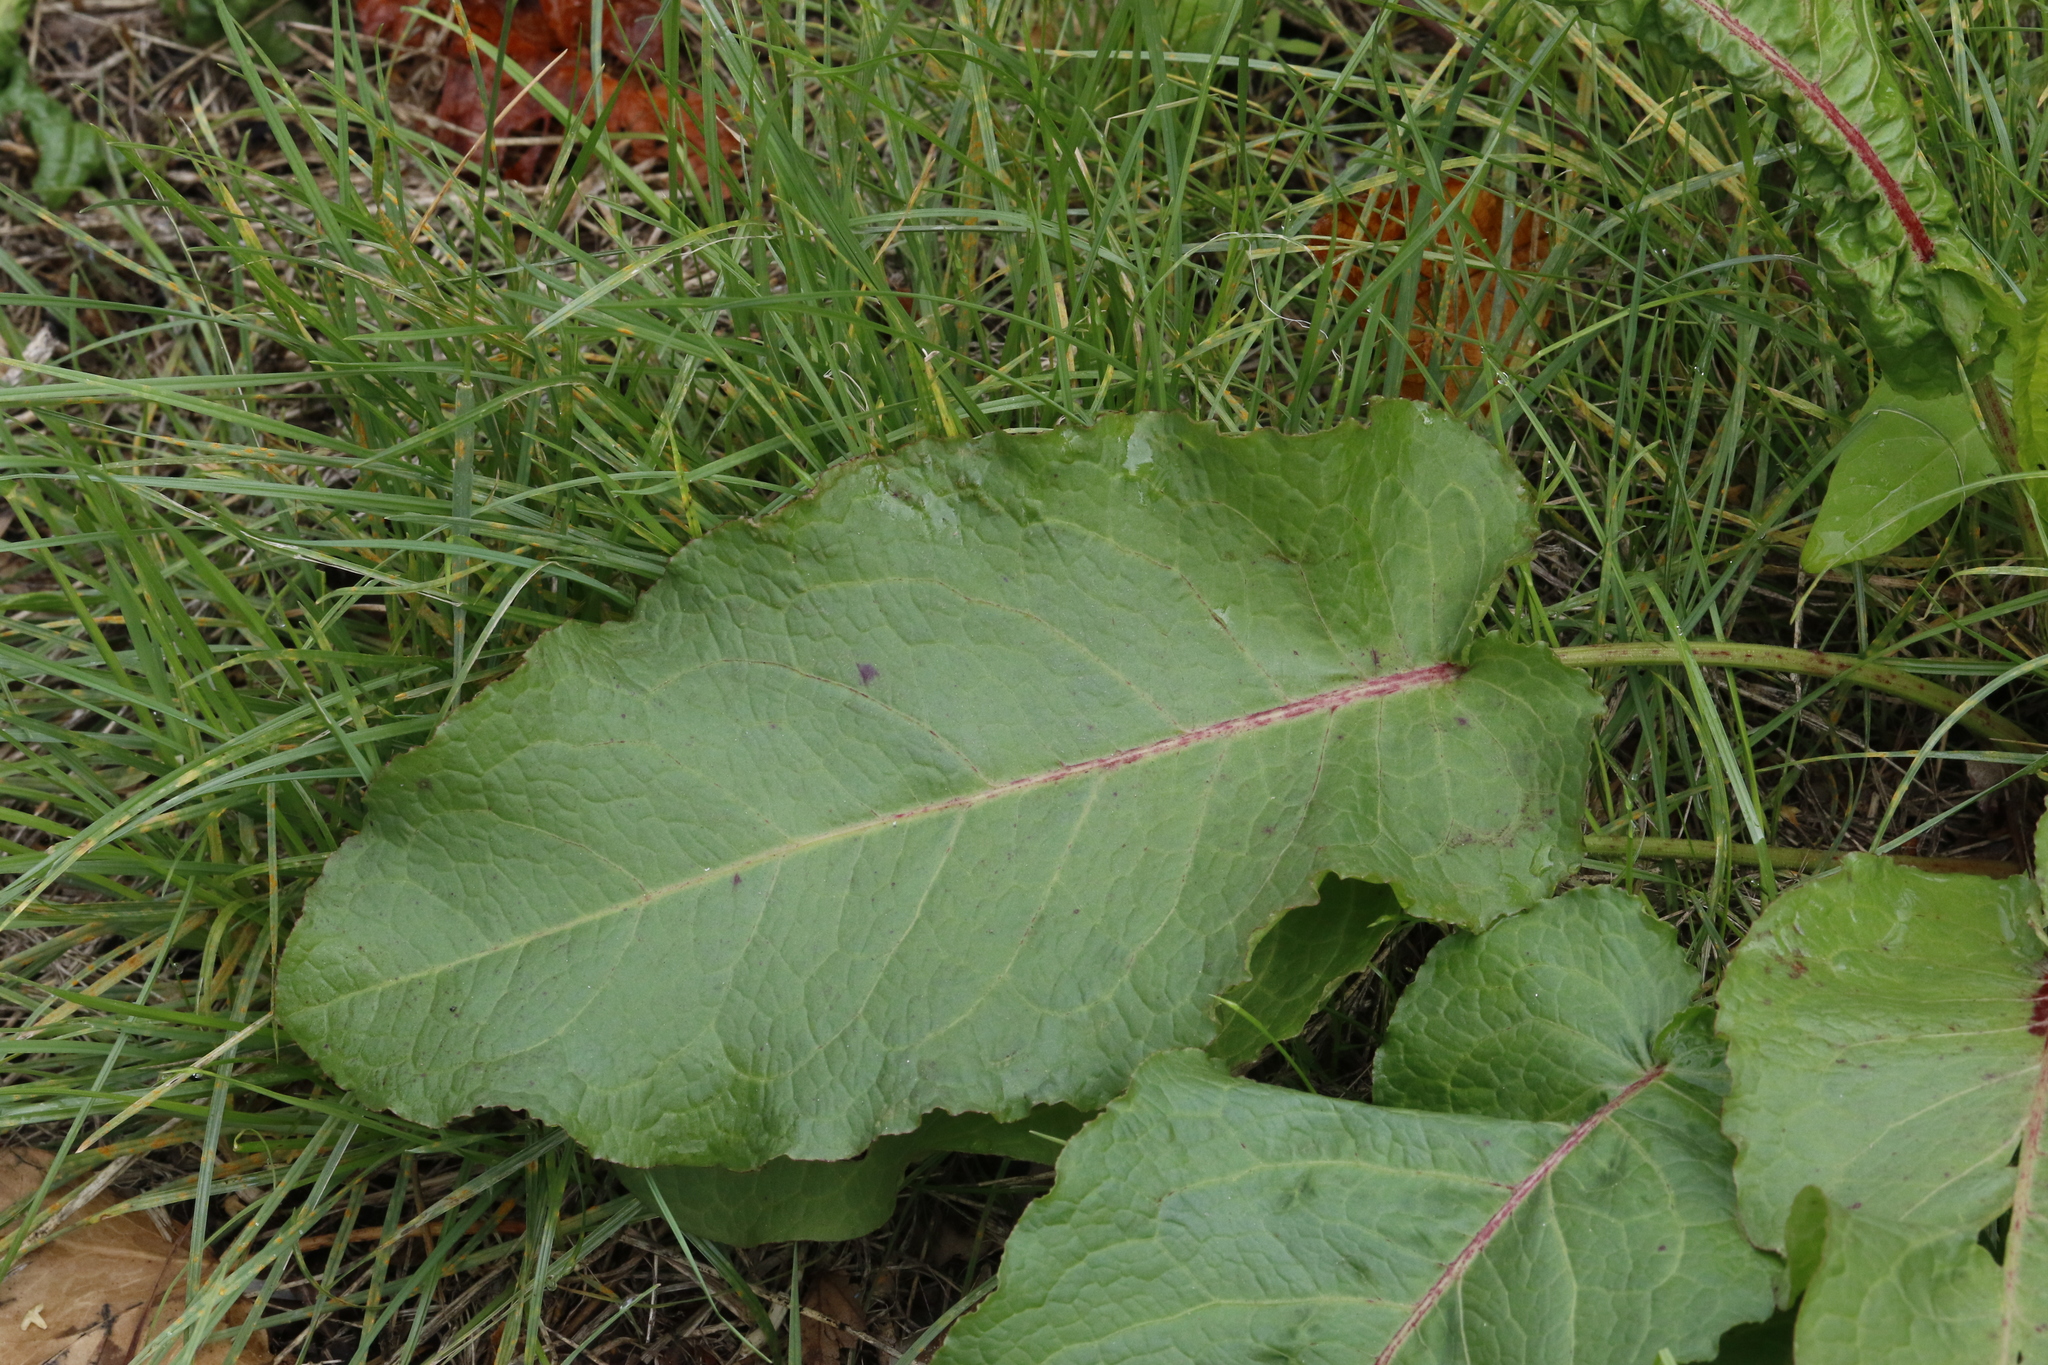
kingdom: Plantae
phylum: Tracheophyta
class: Magnoliopsida
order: Caryophyllales
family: Polygonaceae
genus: Rumex
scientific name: Rumex obtusifolius
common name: Bitter dock
